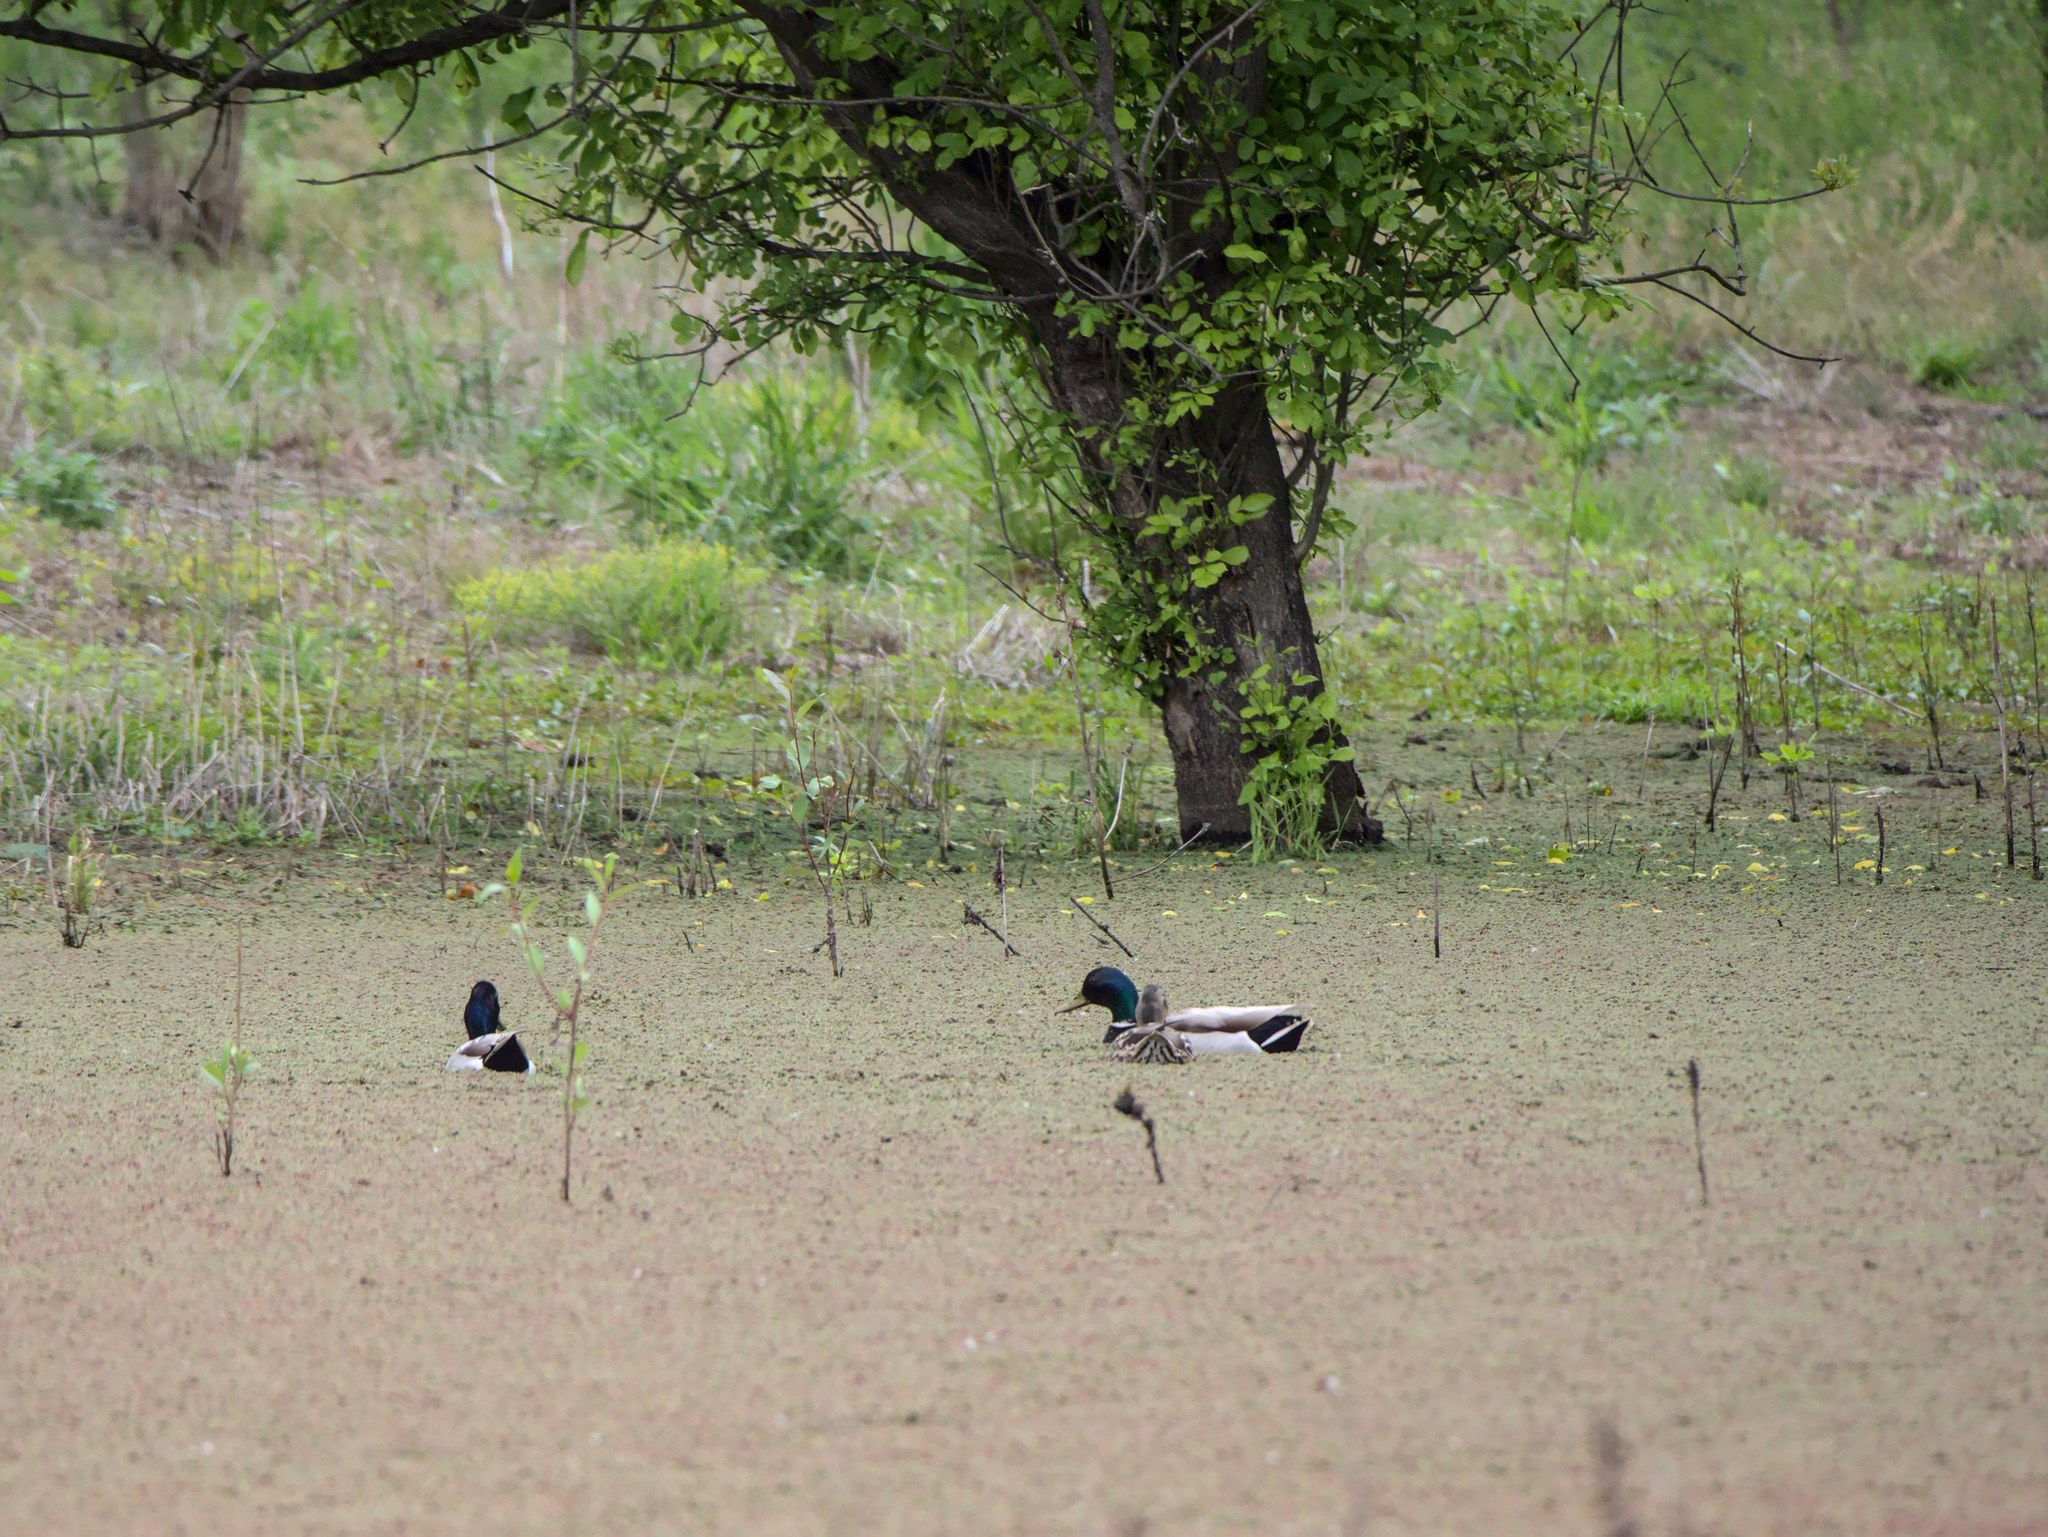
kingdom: Animalia
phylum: Chordata
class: Aves
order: Anseriformes
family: Anatidae
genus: Anas
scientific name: Anas platyrhynchos
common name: Mallard
